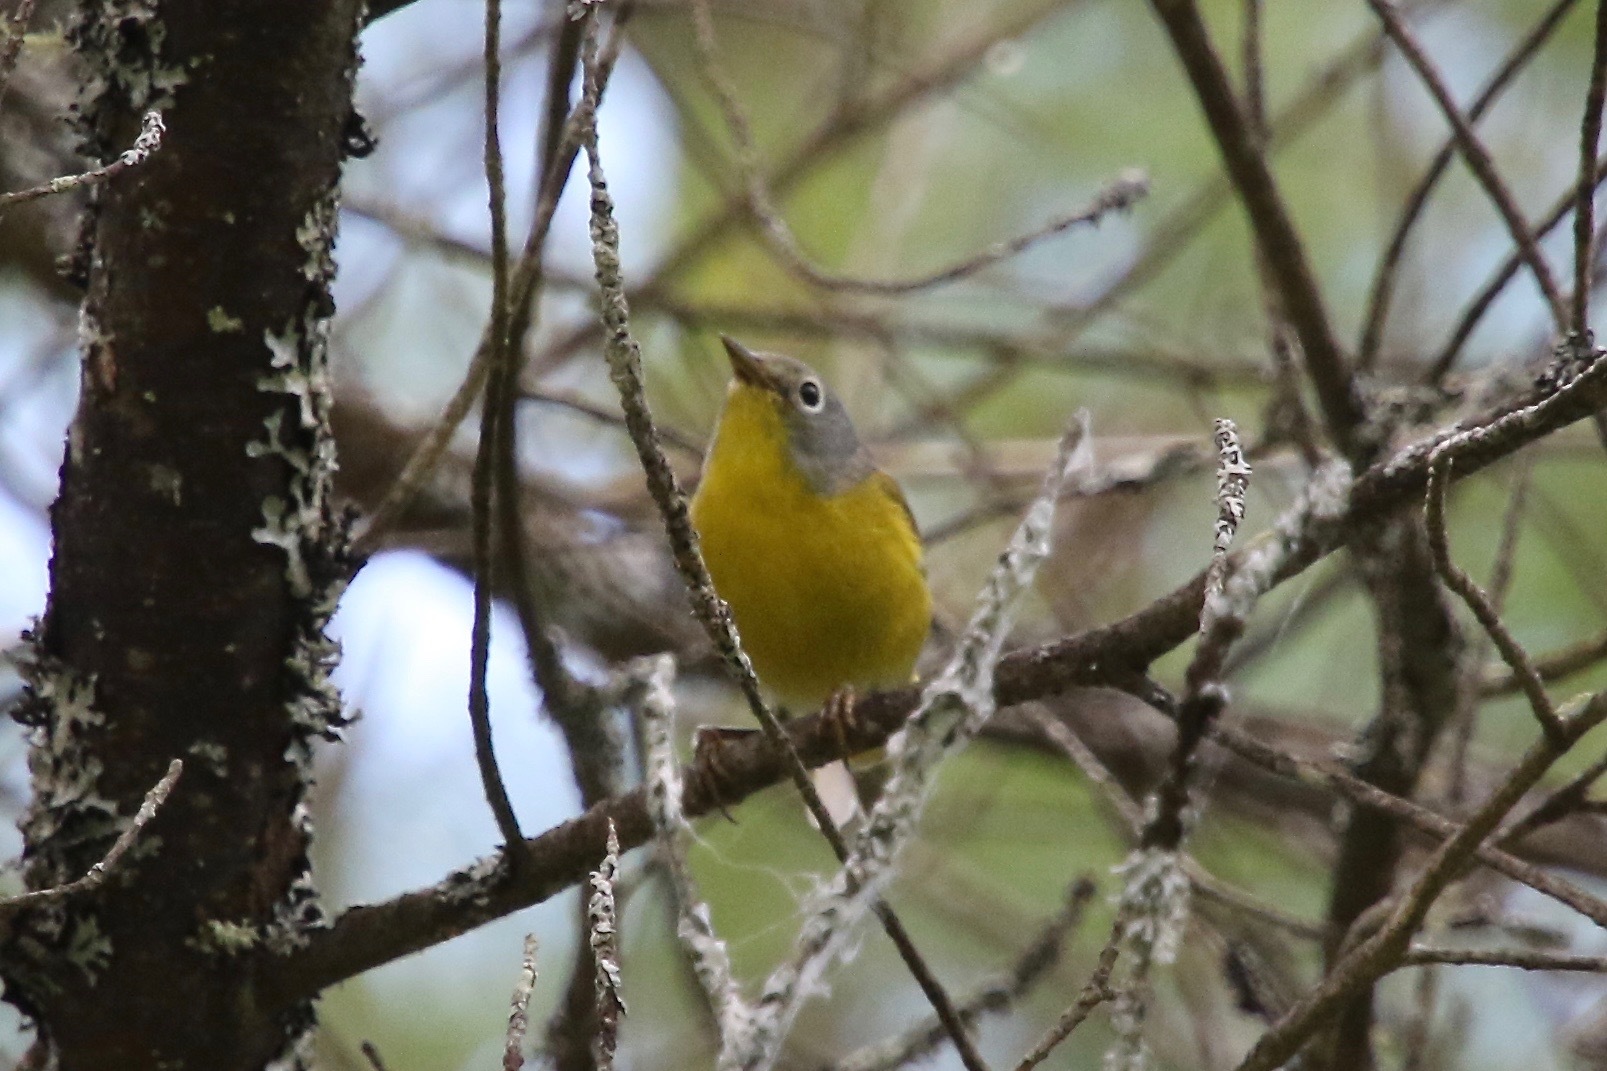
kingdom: Animalia
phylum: Chordata
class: Aves
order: Passeriformes
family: Parulidae
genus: Leiothlypis
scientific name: Leiothlypis ruficapilla
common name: Nashville warbler
